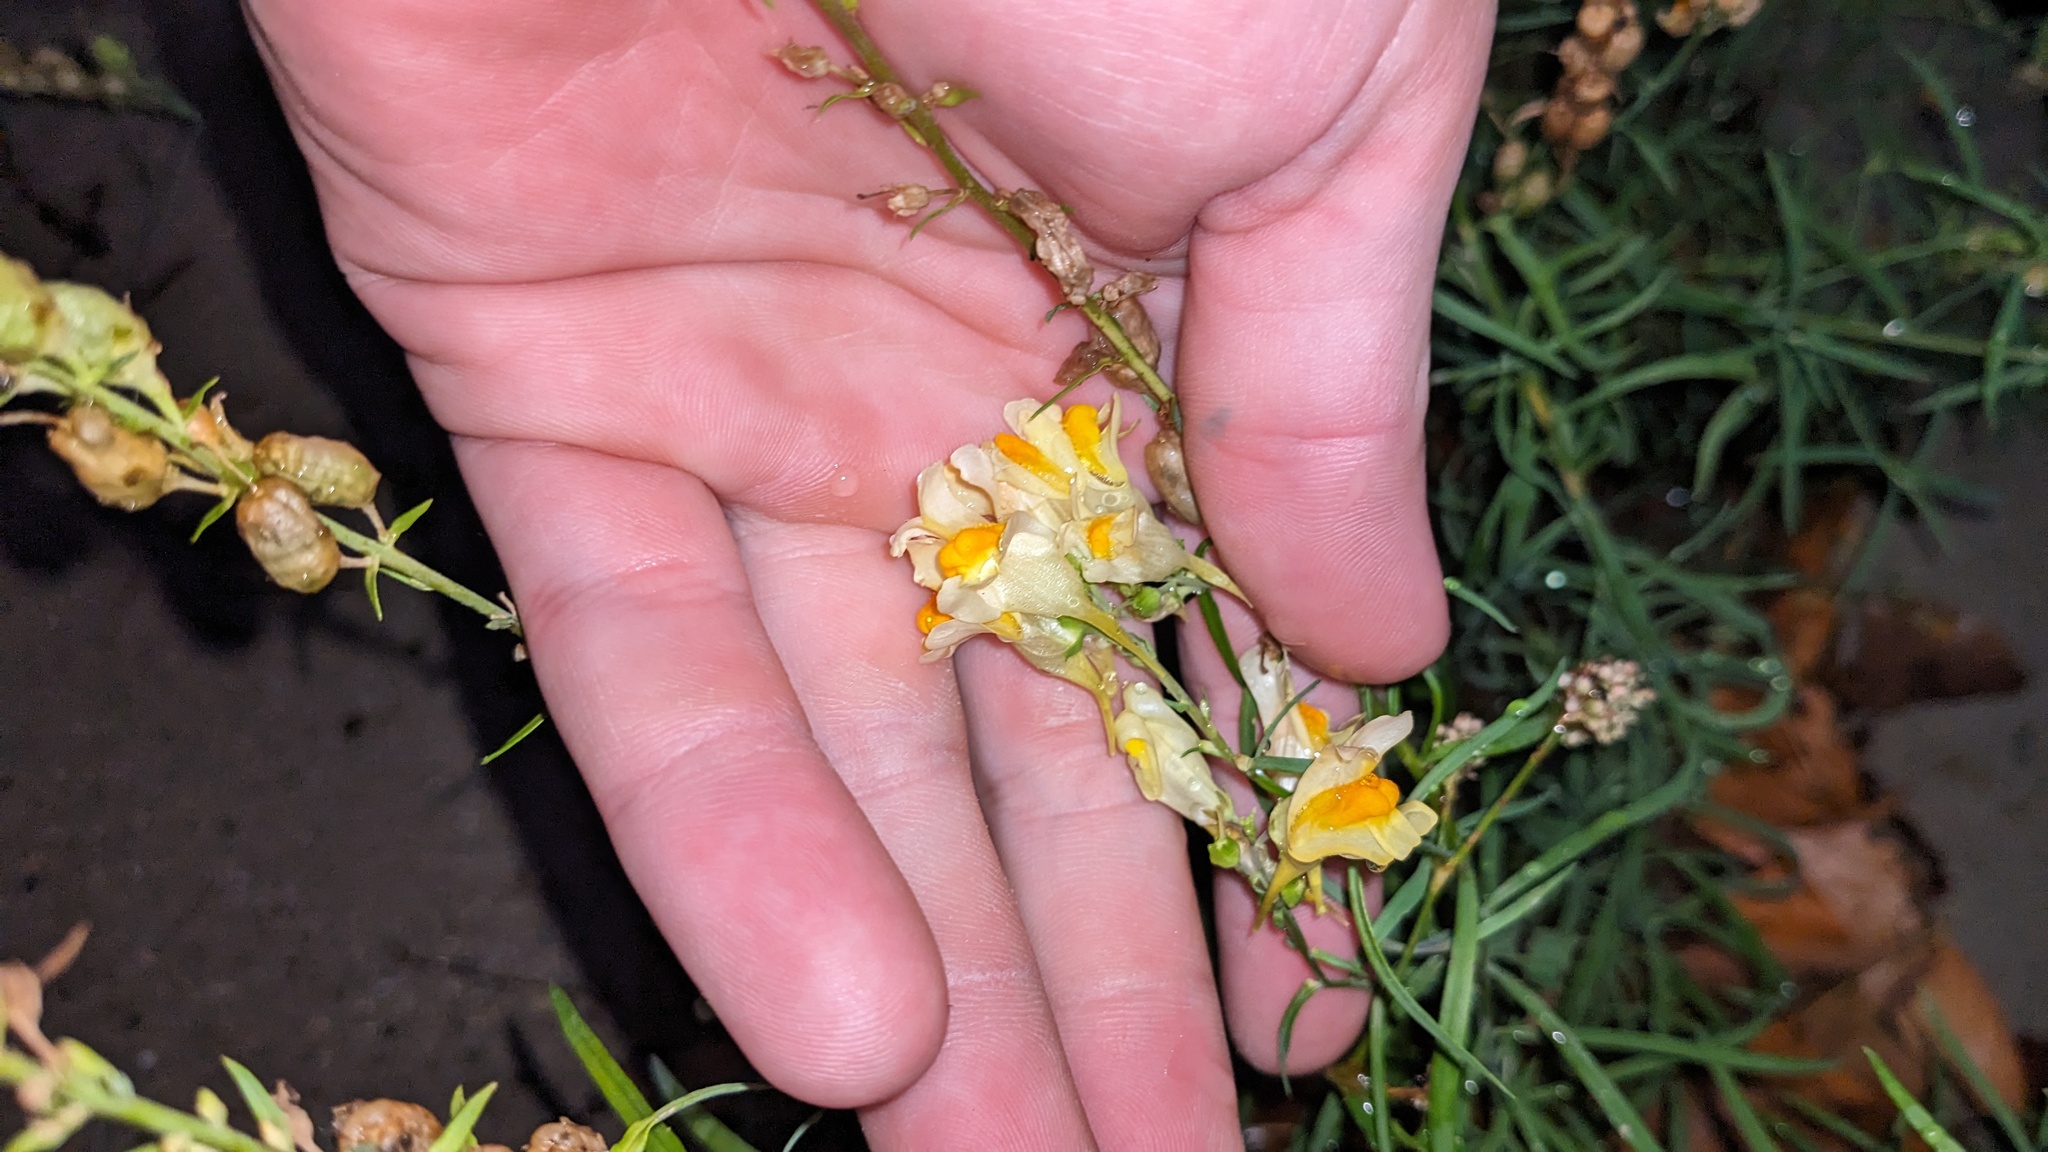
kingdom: Plantae
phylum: Tracheophyta
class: Magnoliopsida
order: Lamiales
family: Plantaginaceae
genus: Linaria
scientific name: Linaria vulgaris
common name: Butter and eggs
